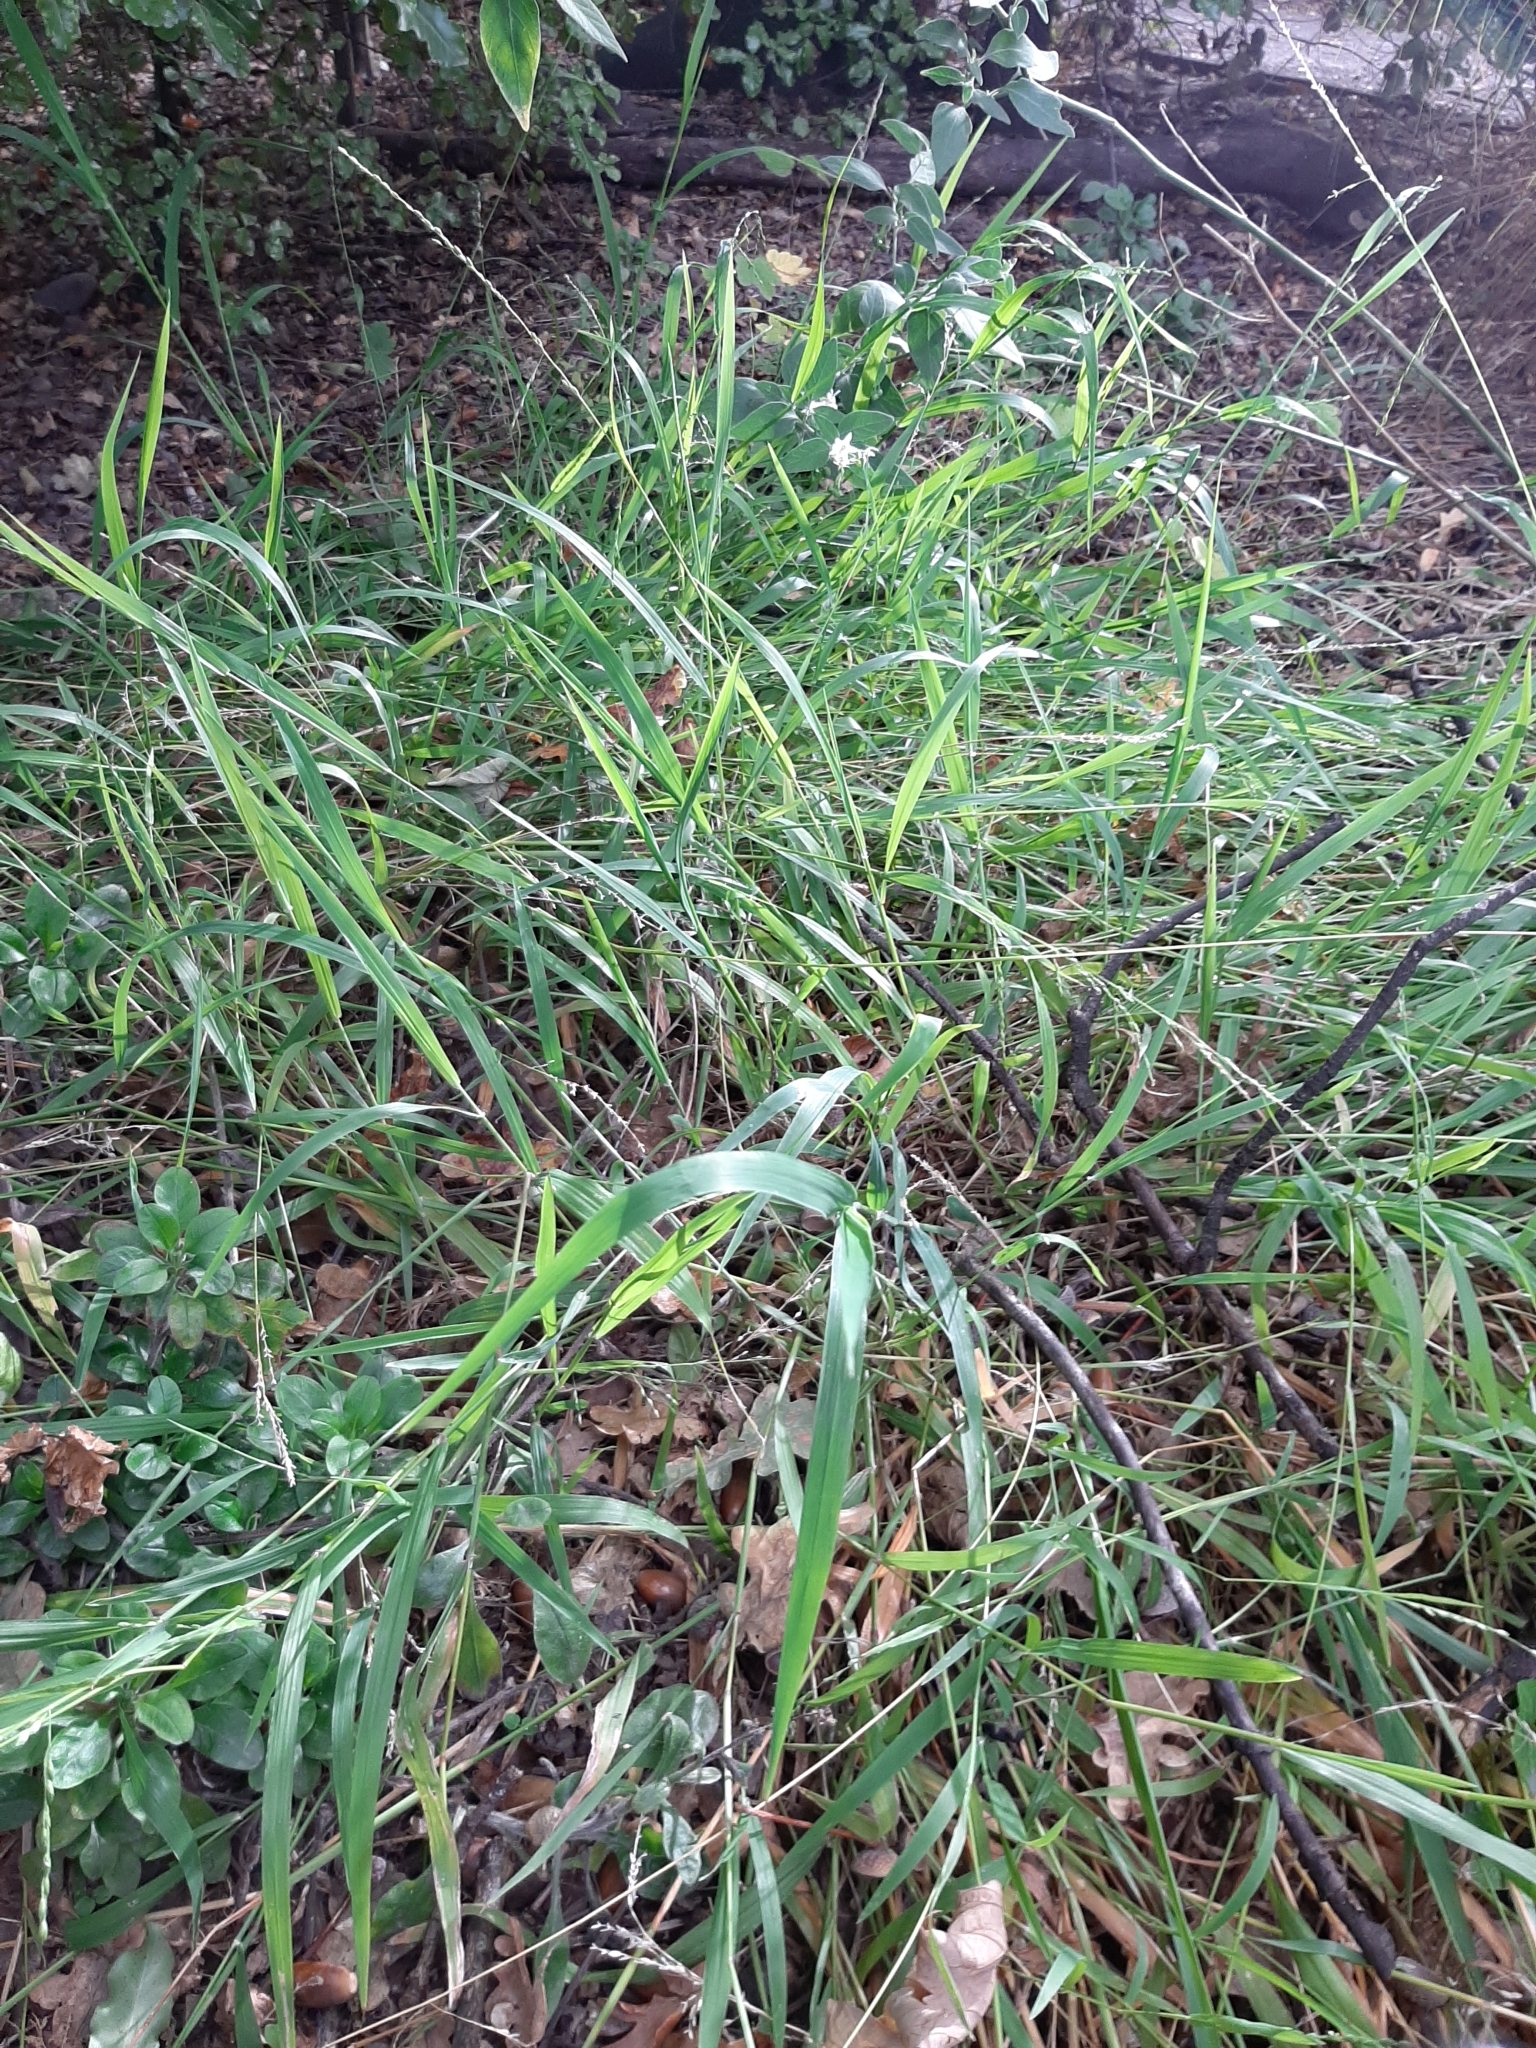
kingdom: Plantae
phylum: Tracheophyta
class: Liliopsida
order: Poales
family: Poaceae
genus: Ehrharta
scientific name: Ehrharta erecta
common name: Panic veldtgrass
